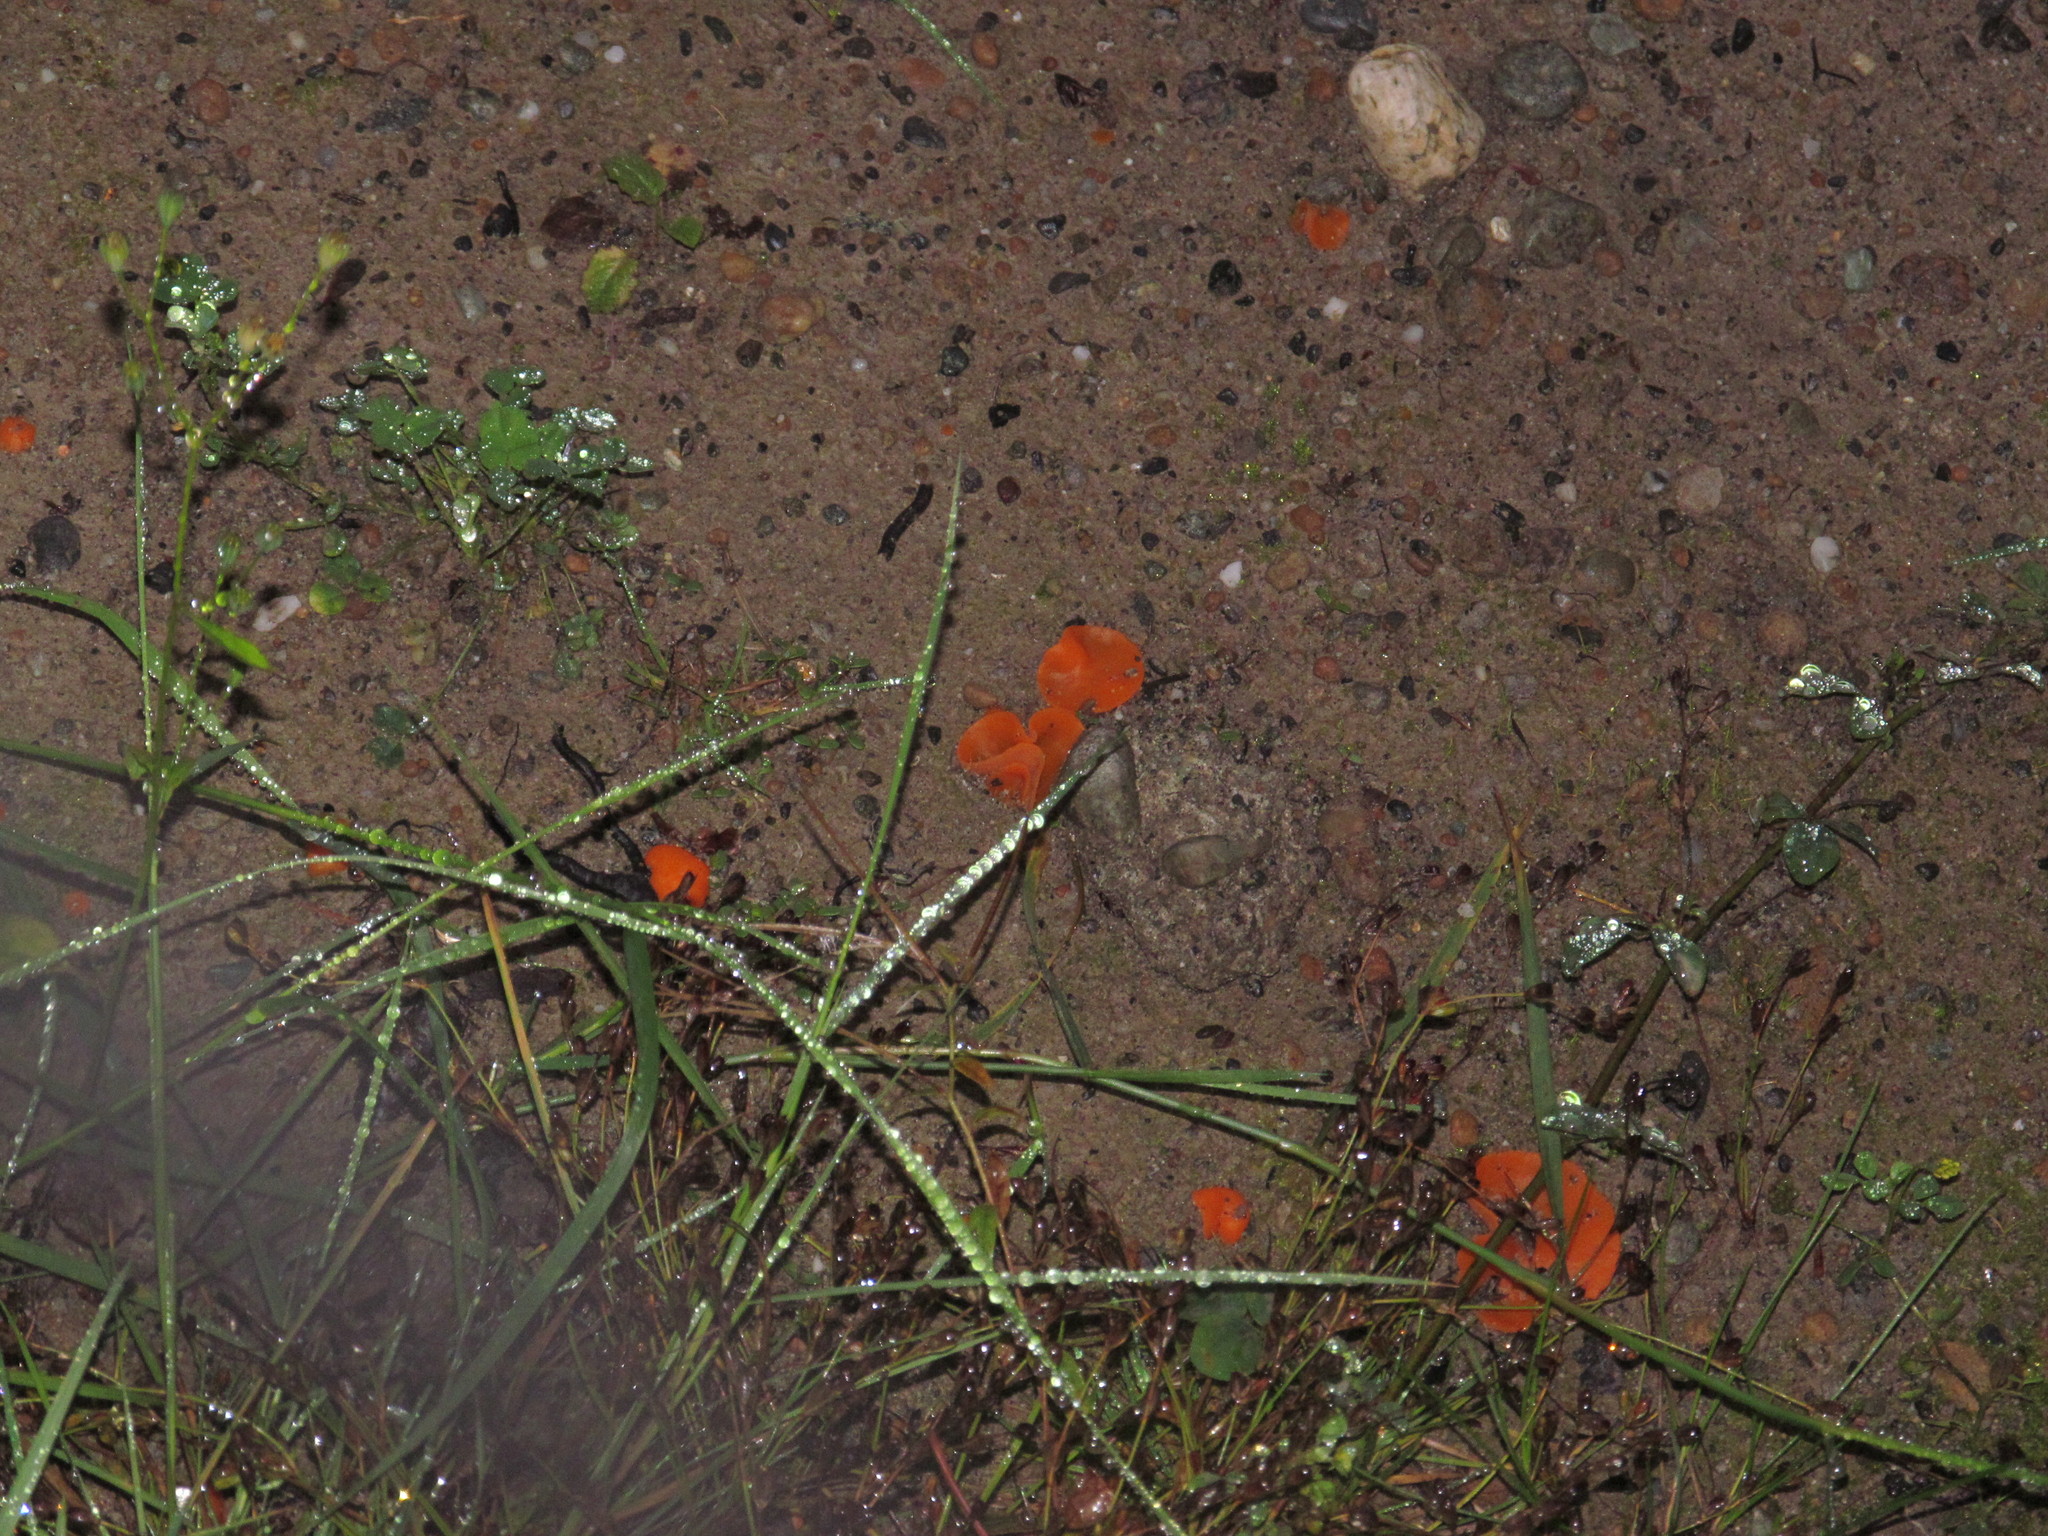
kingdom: Fungi
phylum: Ascomycota
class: Pezizomycetes
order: Pezizales
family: Pyronemataceae
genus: Aleuria
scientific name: Aleuria aurantia
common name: Orange peel fungus
